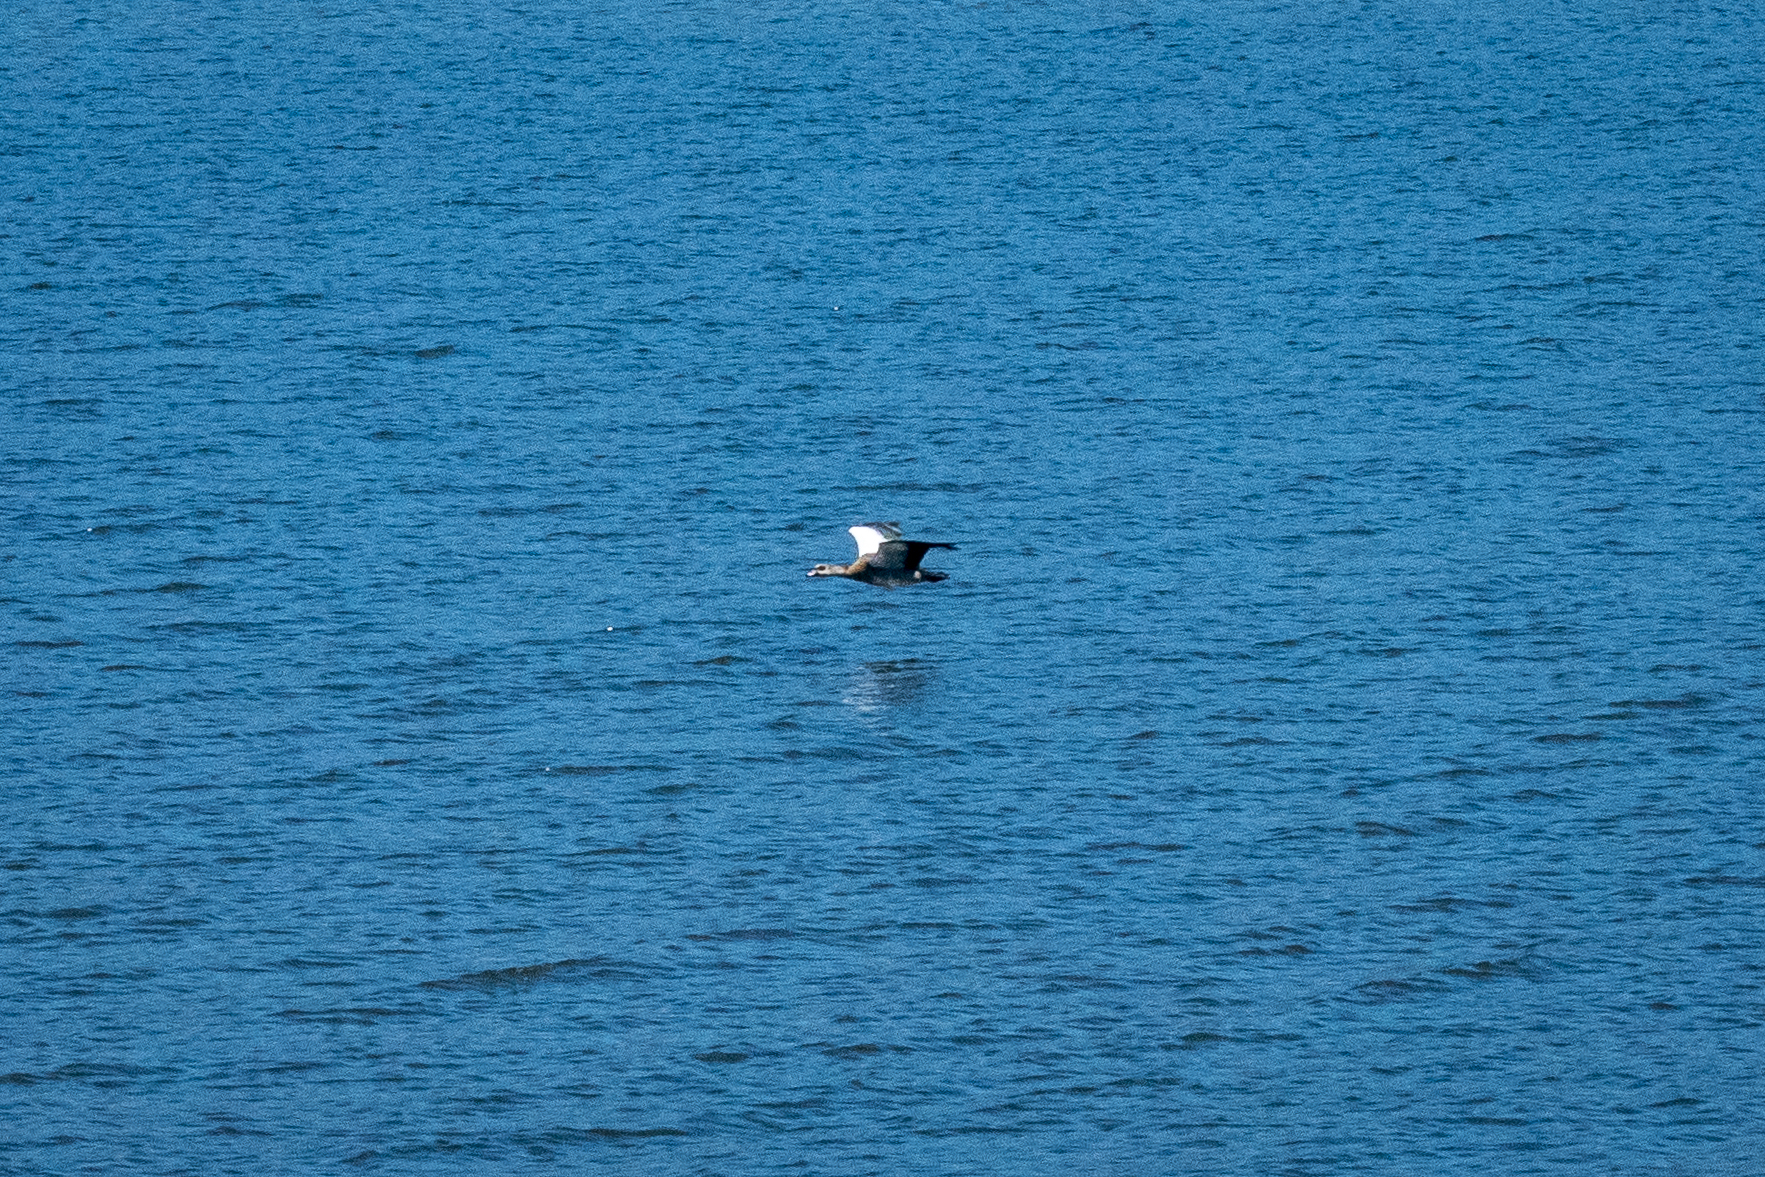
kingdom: Animalia
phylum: Chordata
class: Aves
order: Anseriformes
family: Anatidae
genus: Alopochen
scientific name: Alopochen aegyptiaca
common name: Egyptian goose
